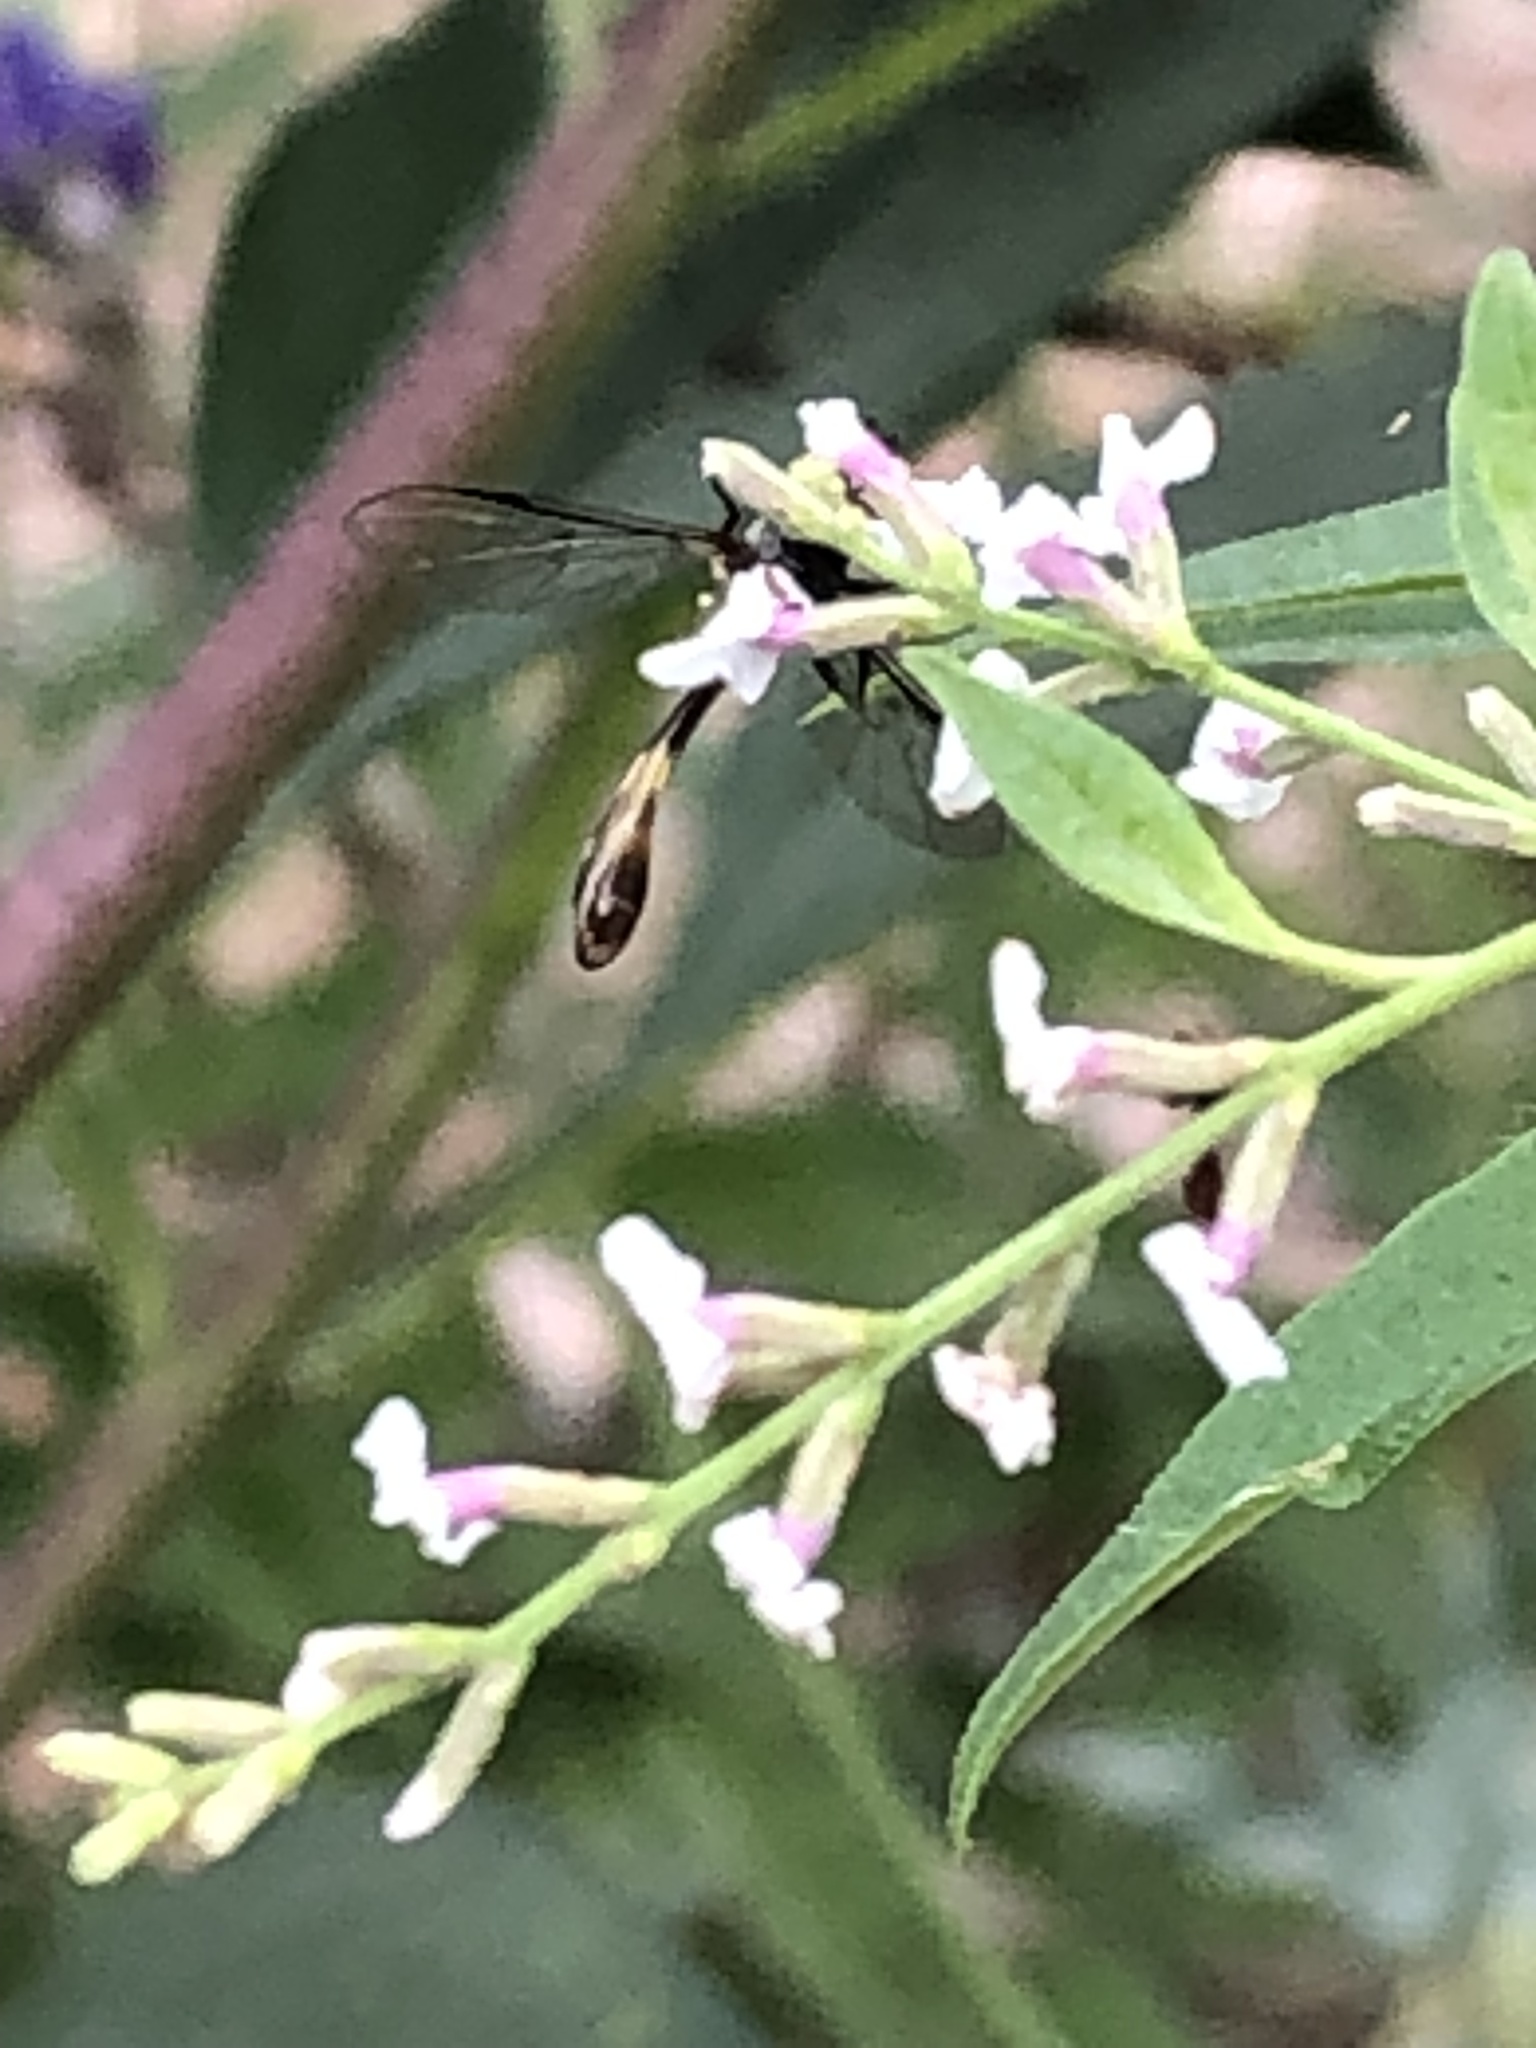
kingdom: Animalia
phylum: Arthropoda
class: Insecta
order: Diptera
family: Syrphidae
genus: Dioprosopa
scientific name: Dioprosopa clavatus
